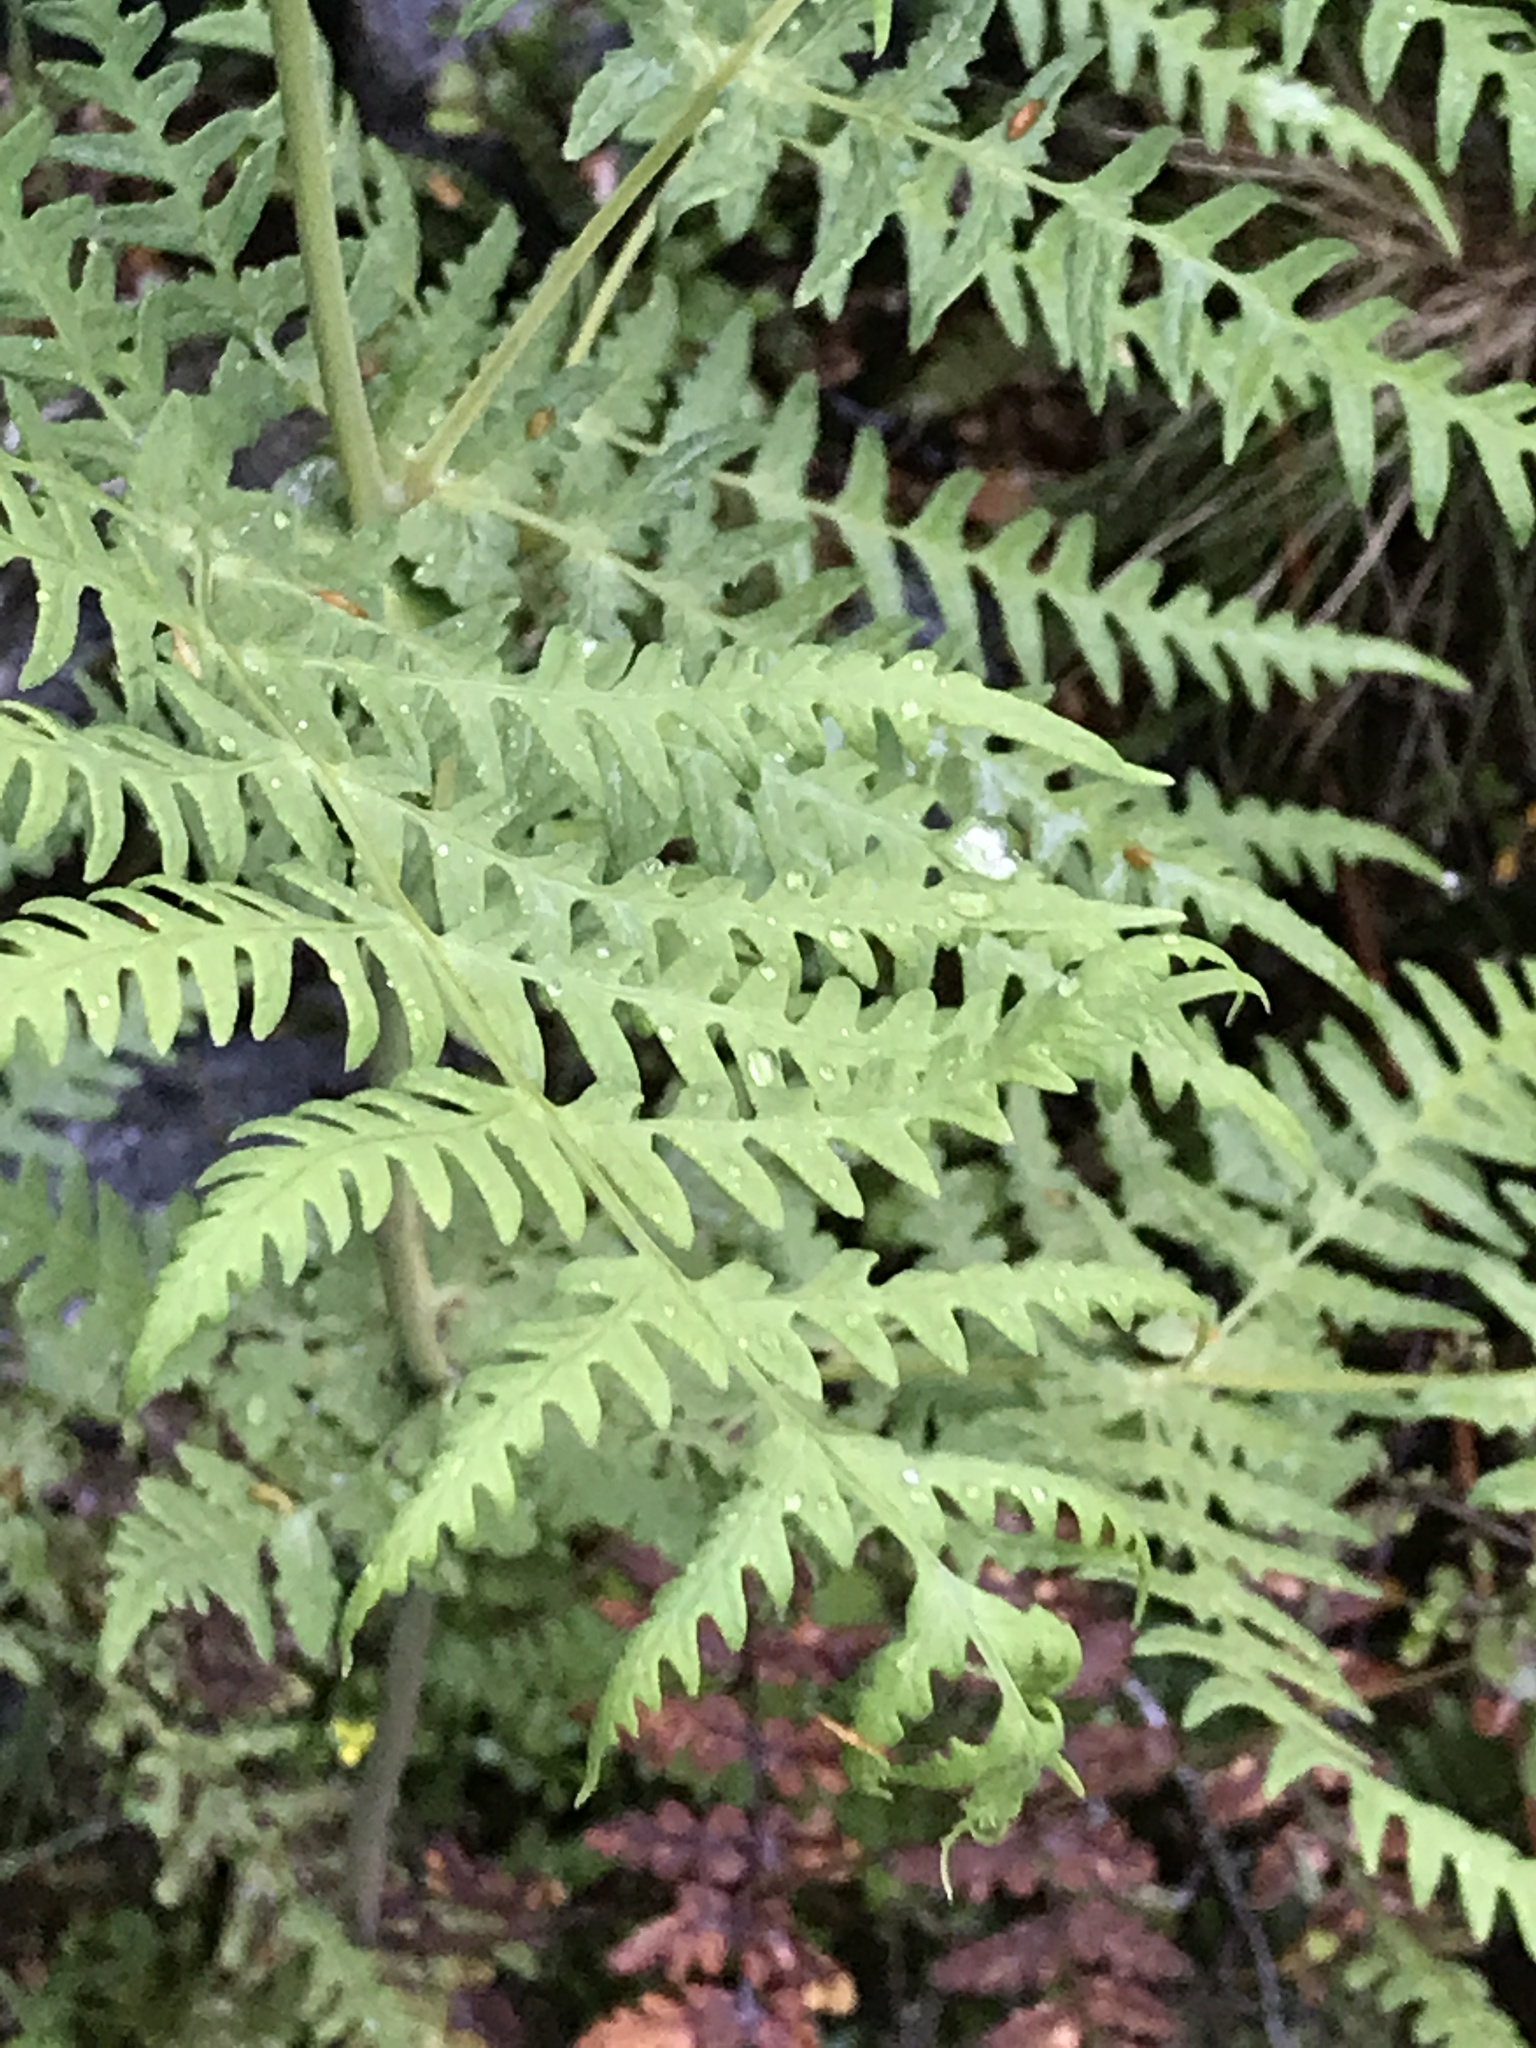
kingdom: Plantae
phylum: Tracheophyta
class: Polypodiopsida
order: Polypodiales
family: Dennstaedtiaceae
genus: Histiopteris
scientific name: Histiopteris incisa
